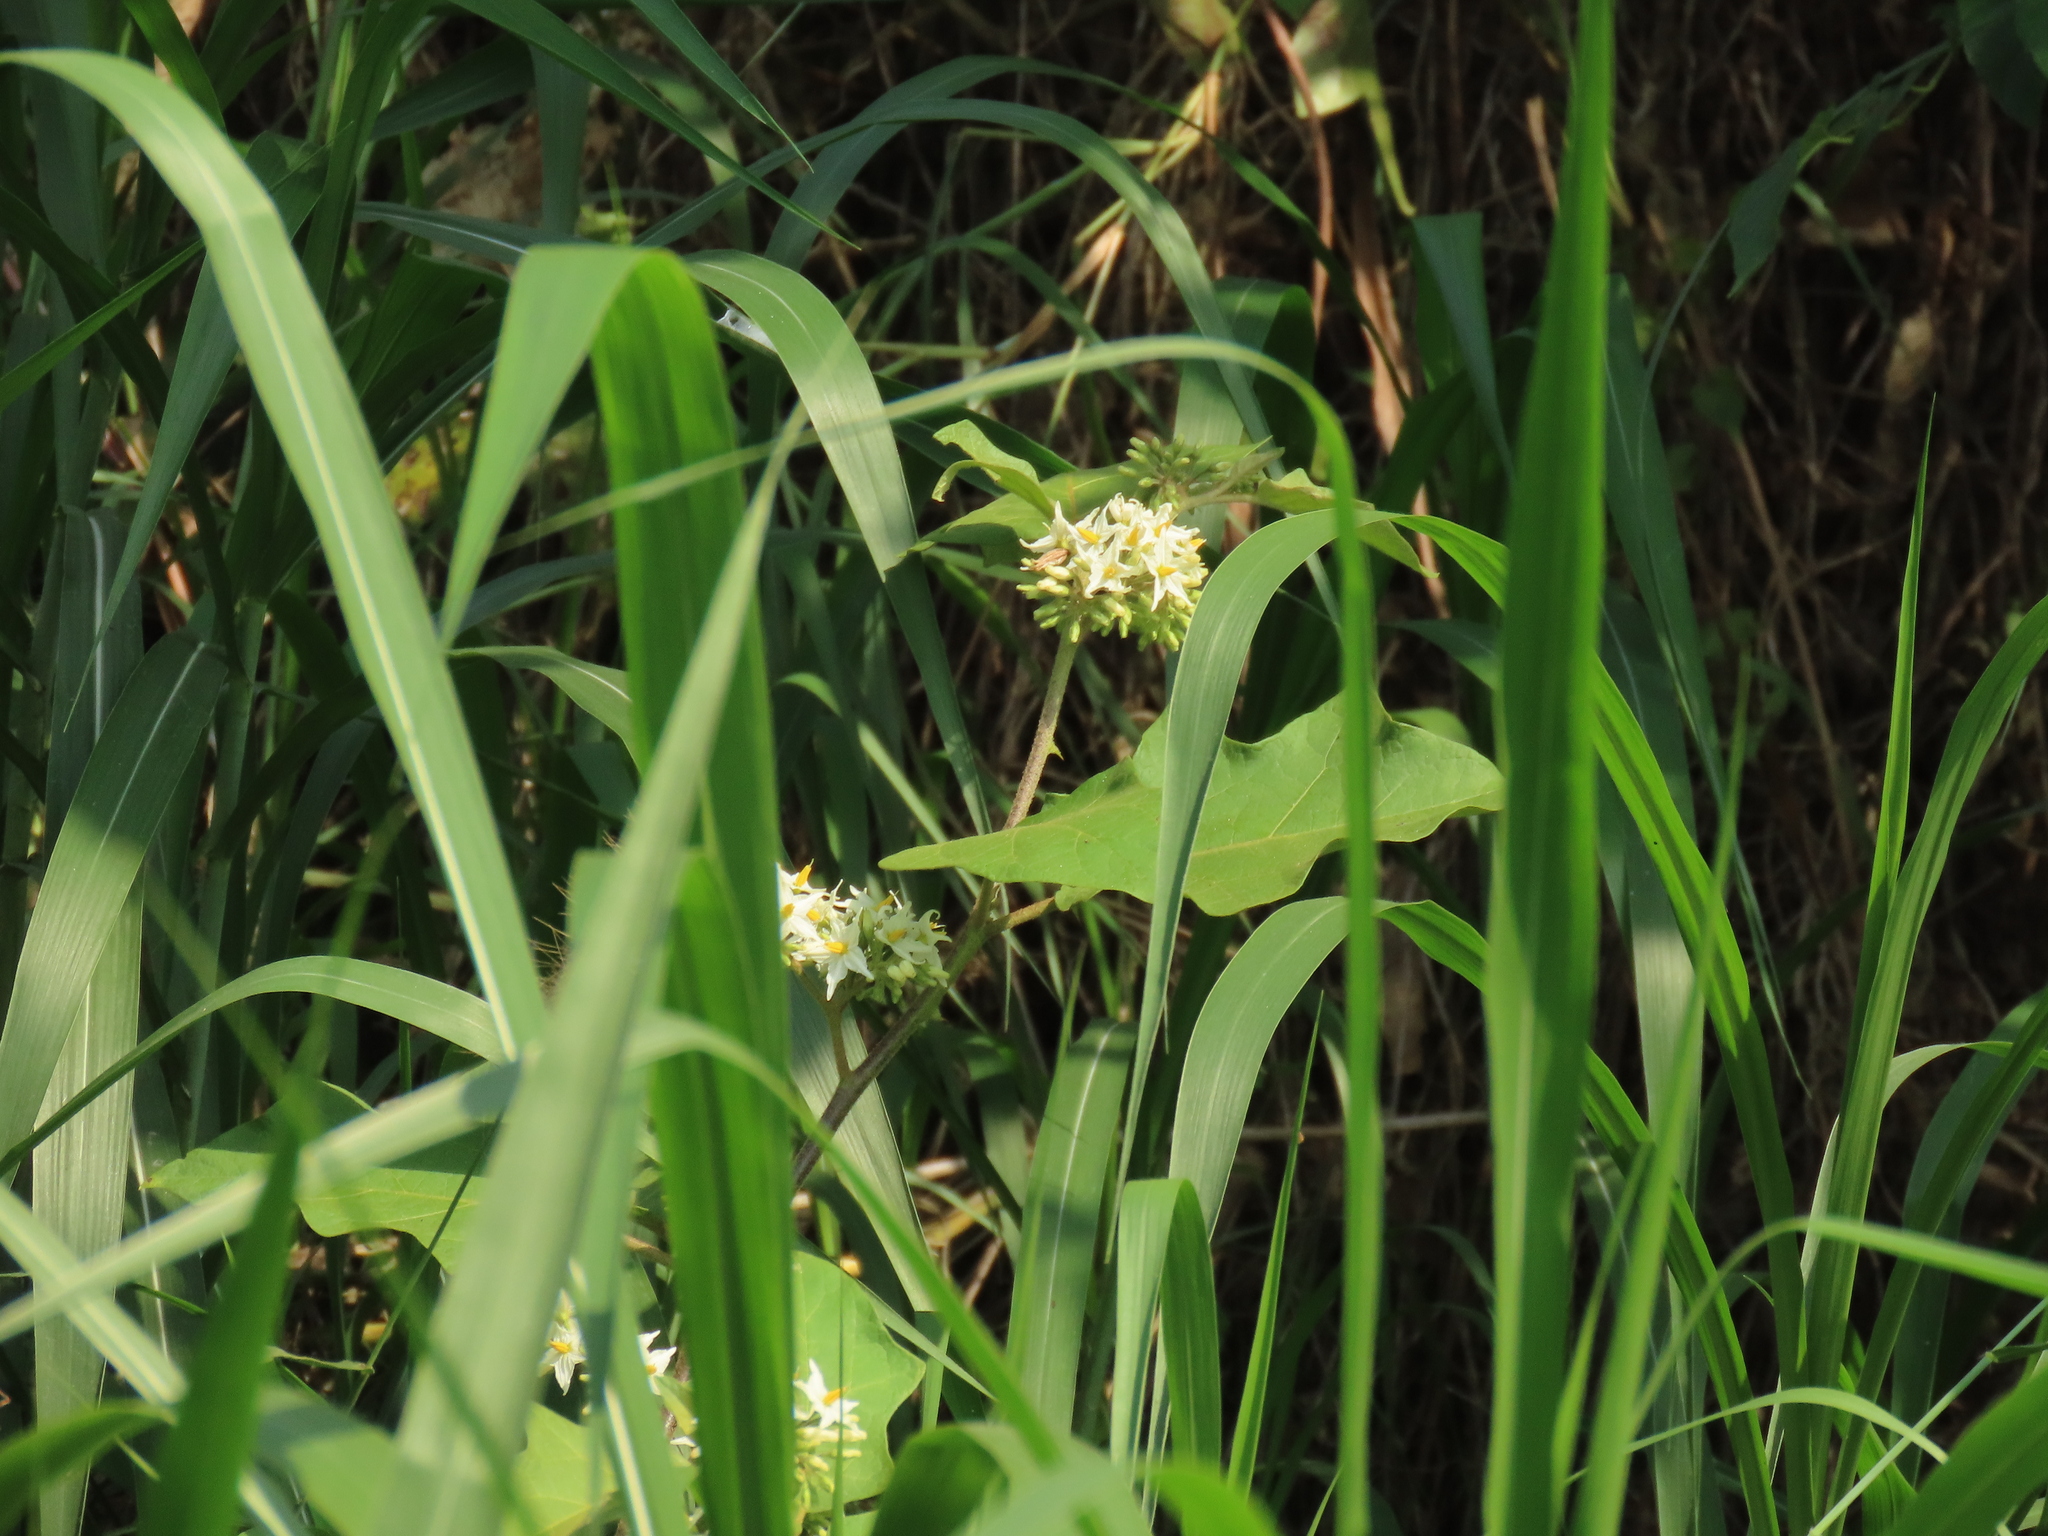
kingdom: Plantae
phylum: Tracheophyta
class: Magnoliopsida
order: Solanales
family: Solanaceae
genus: Solanum
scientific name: Solanum torvum
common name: Turkey berry
